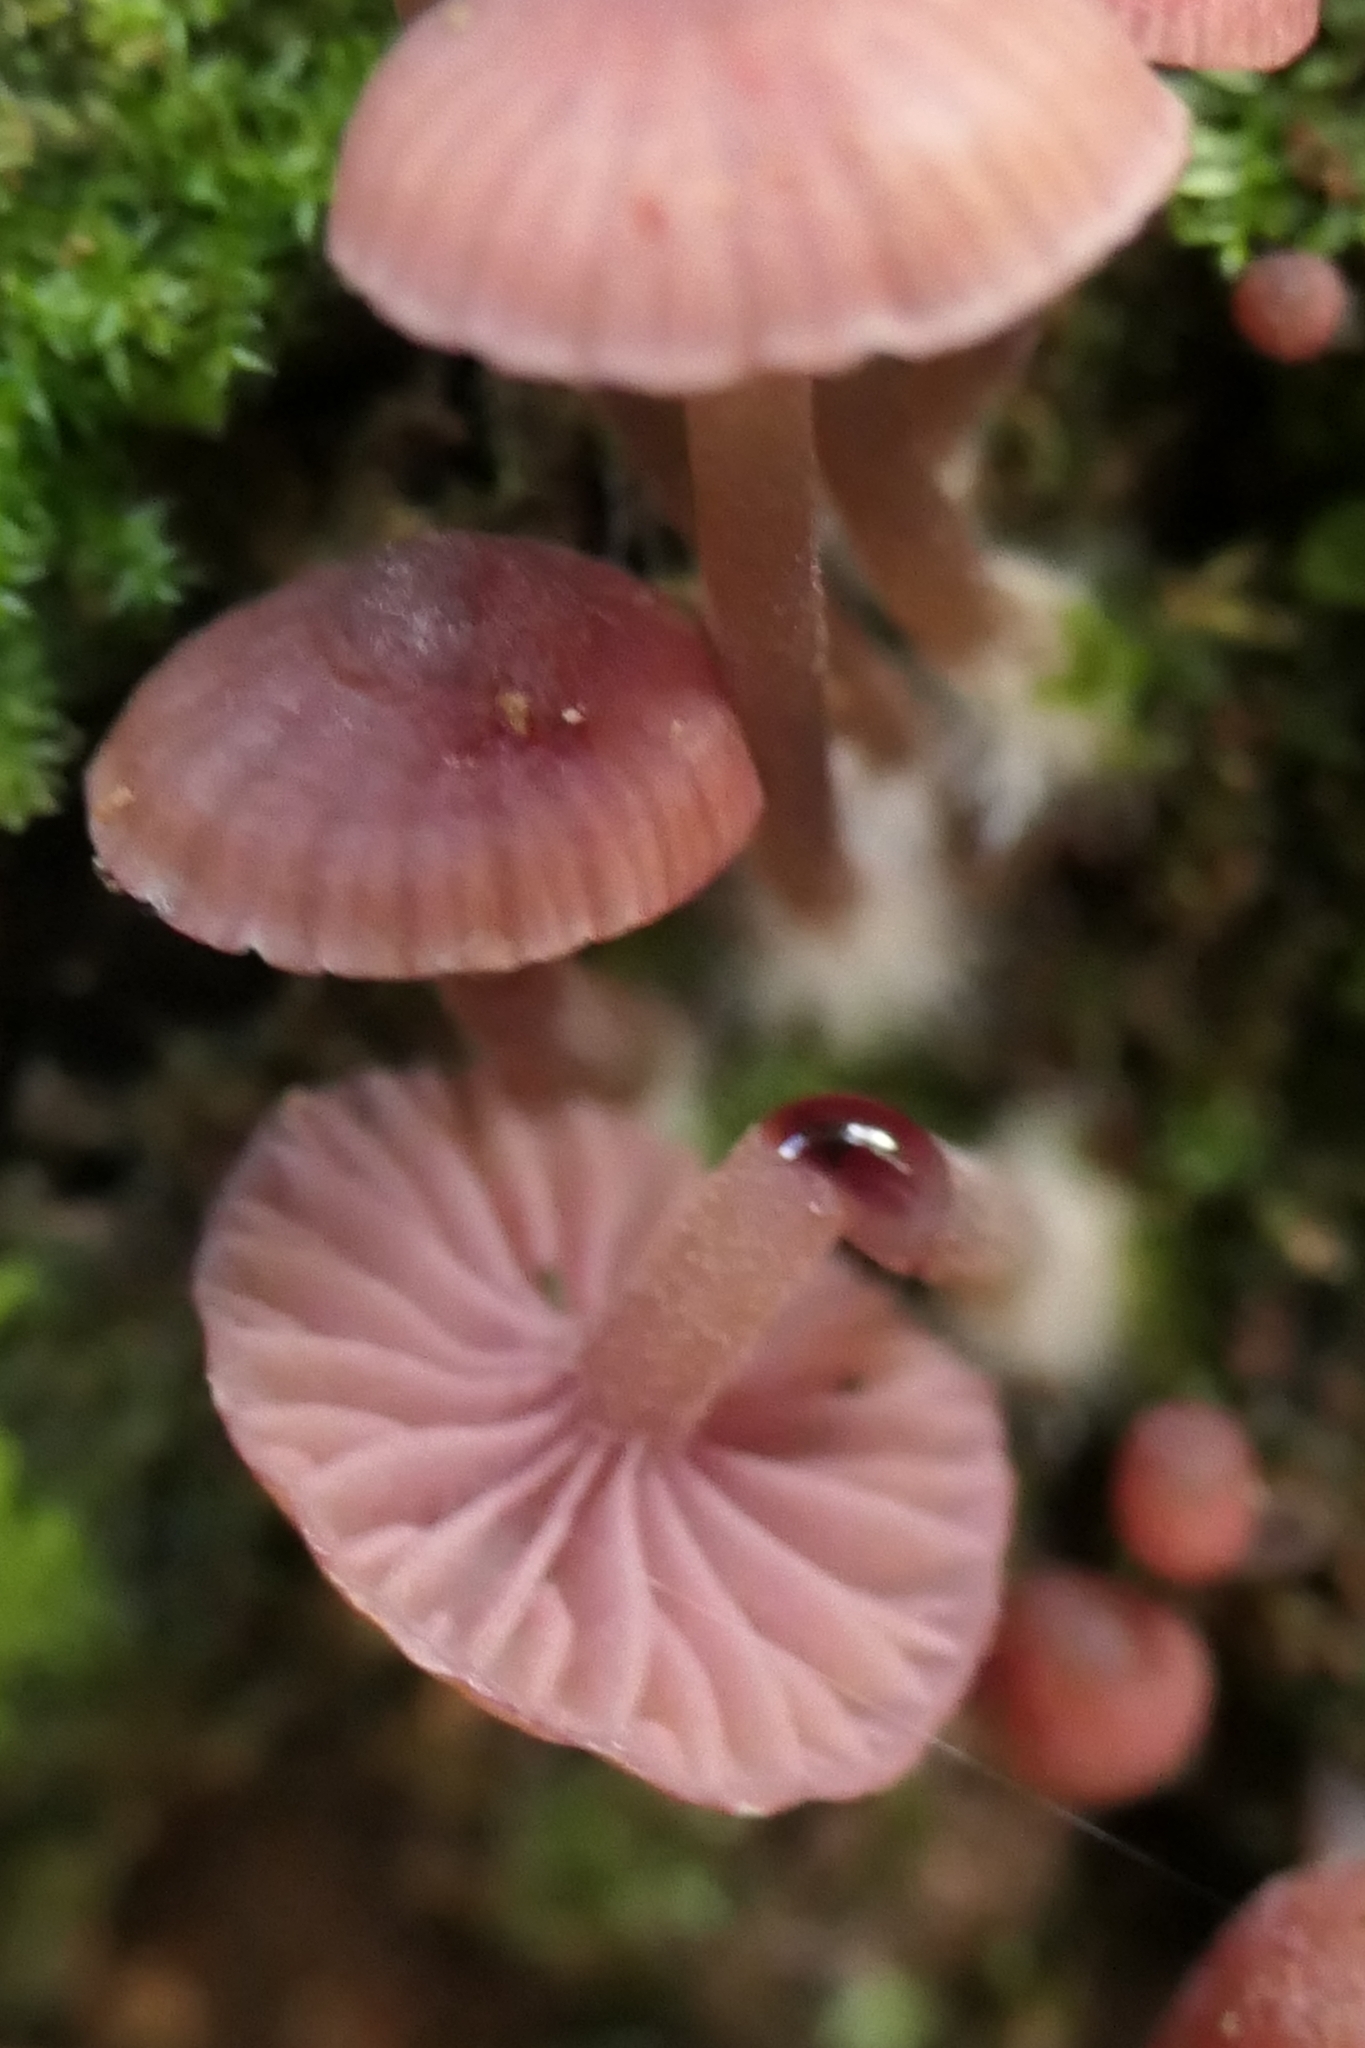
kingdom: Fungi
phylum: Basidiomycota
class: Agaricomycetes
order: Agaricales
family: Mycenaceae
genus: Mycena
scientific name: Mycena mariae
